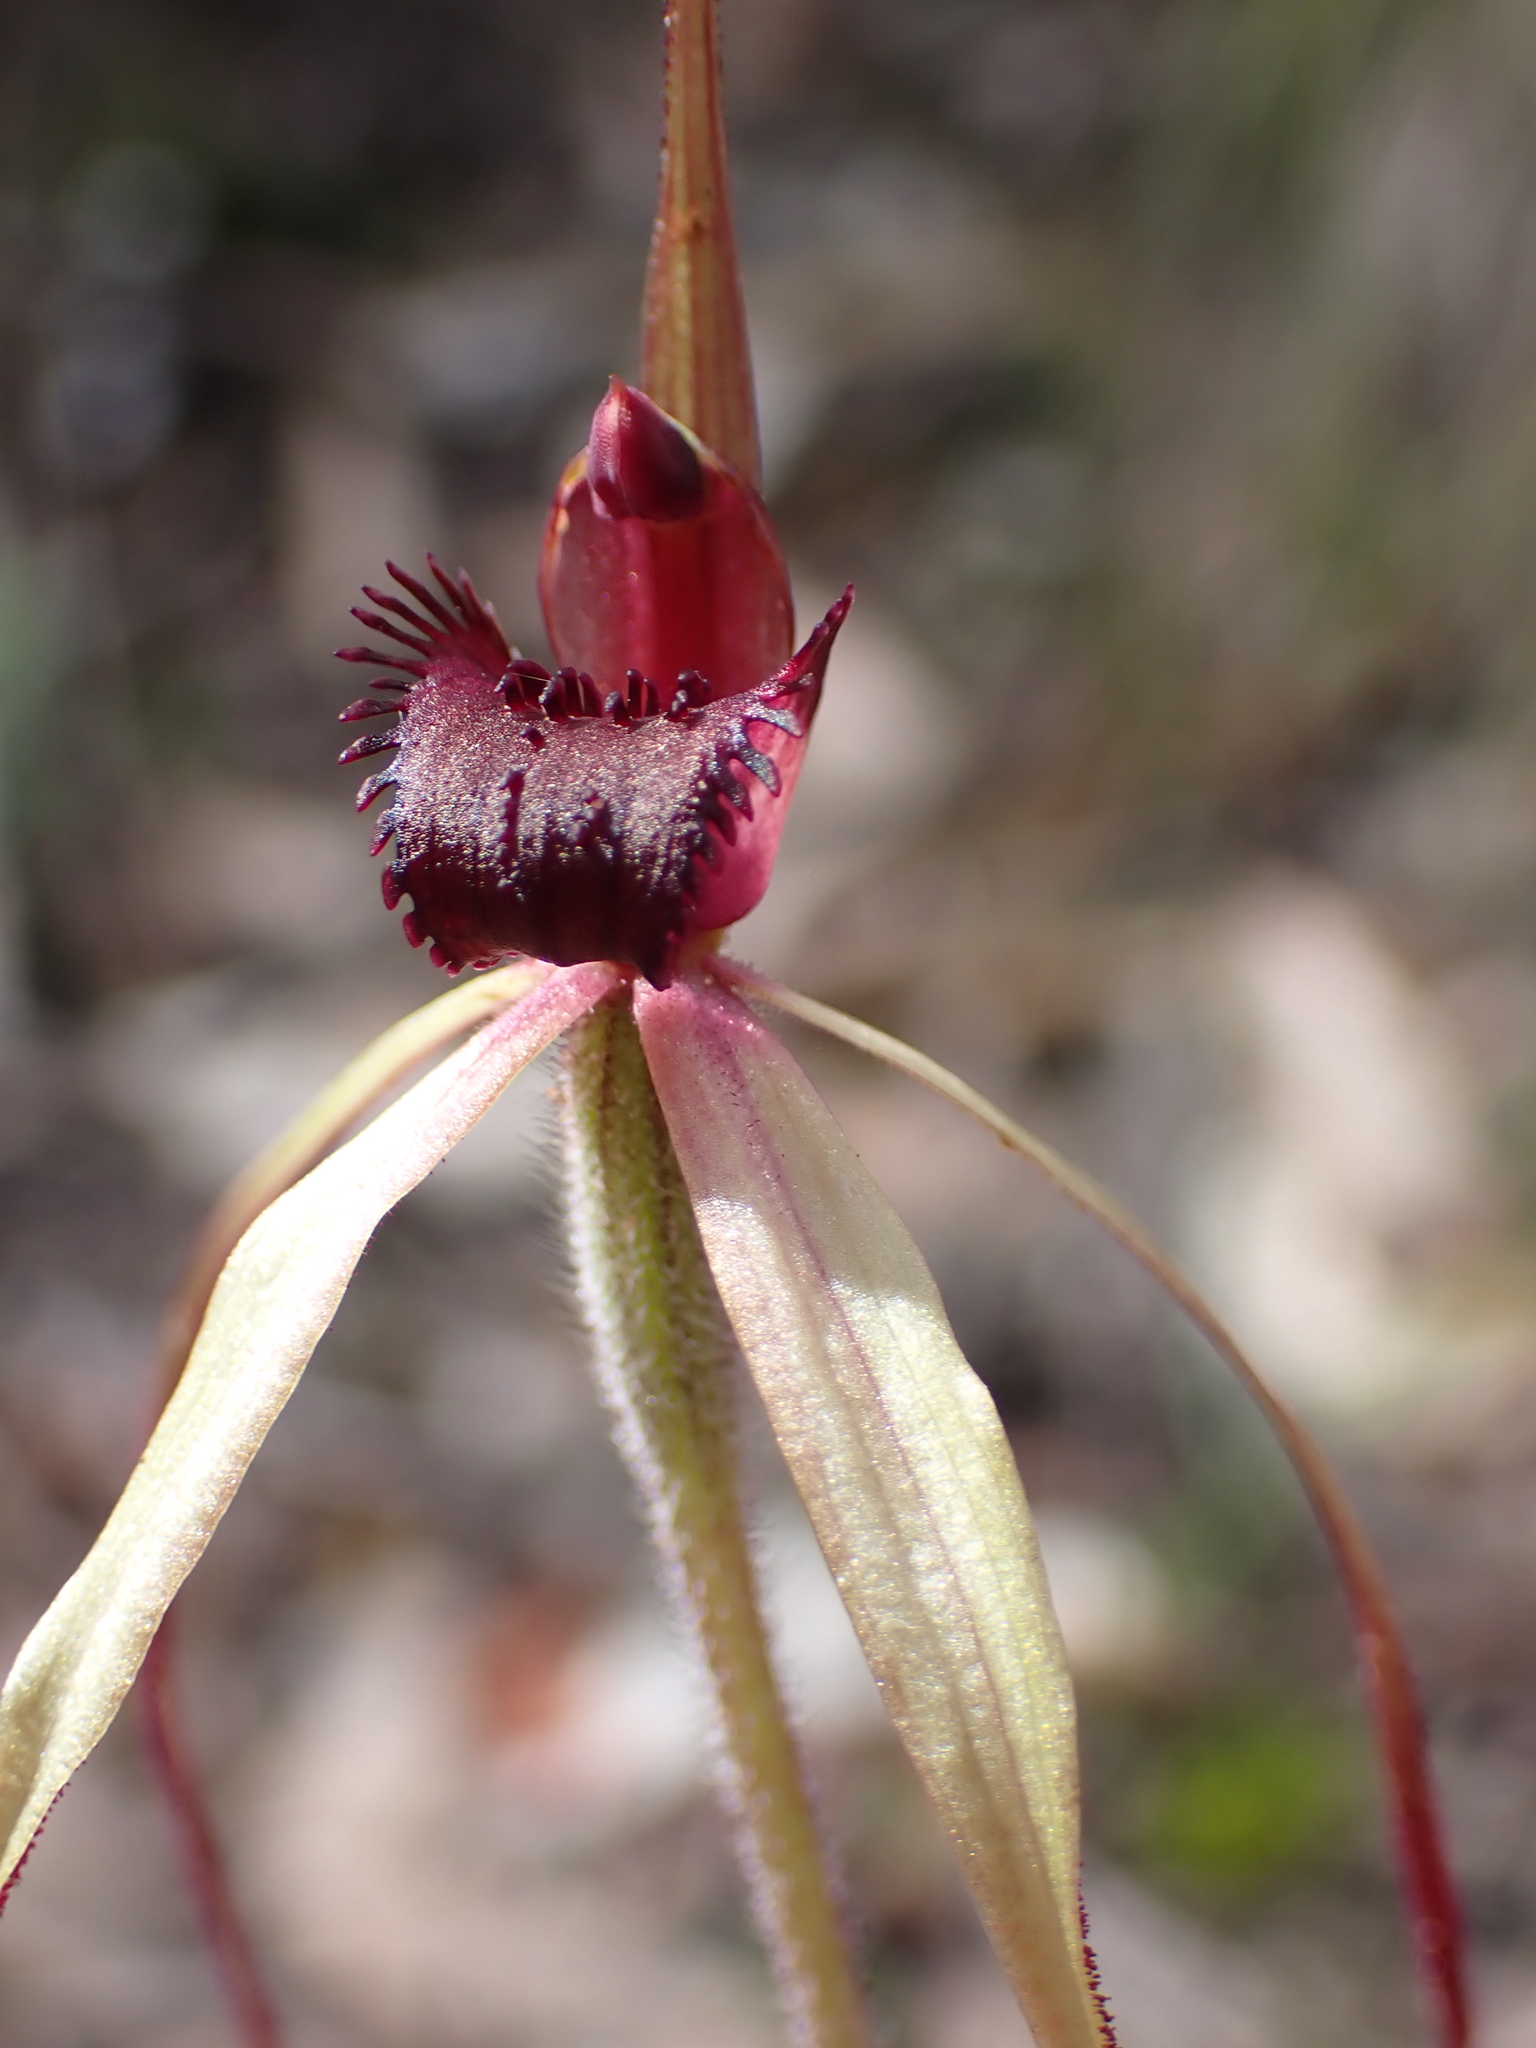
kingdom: Plantae
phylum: Tracheophyta
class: Liliopsida
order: Asparagales
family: Orchidaceae
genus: Caladenia
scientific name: Caladenia grampiana
